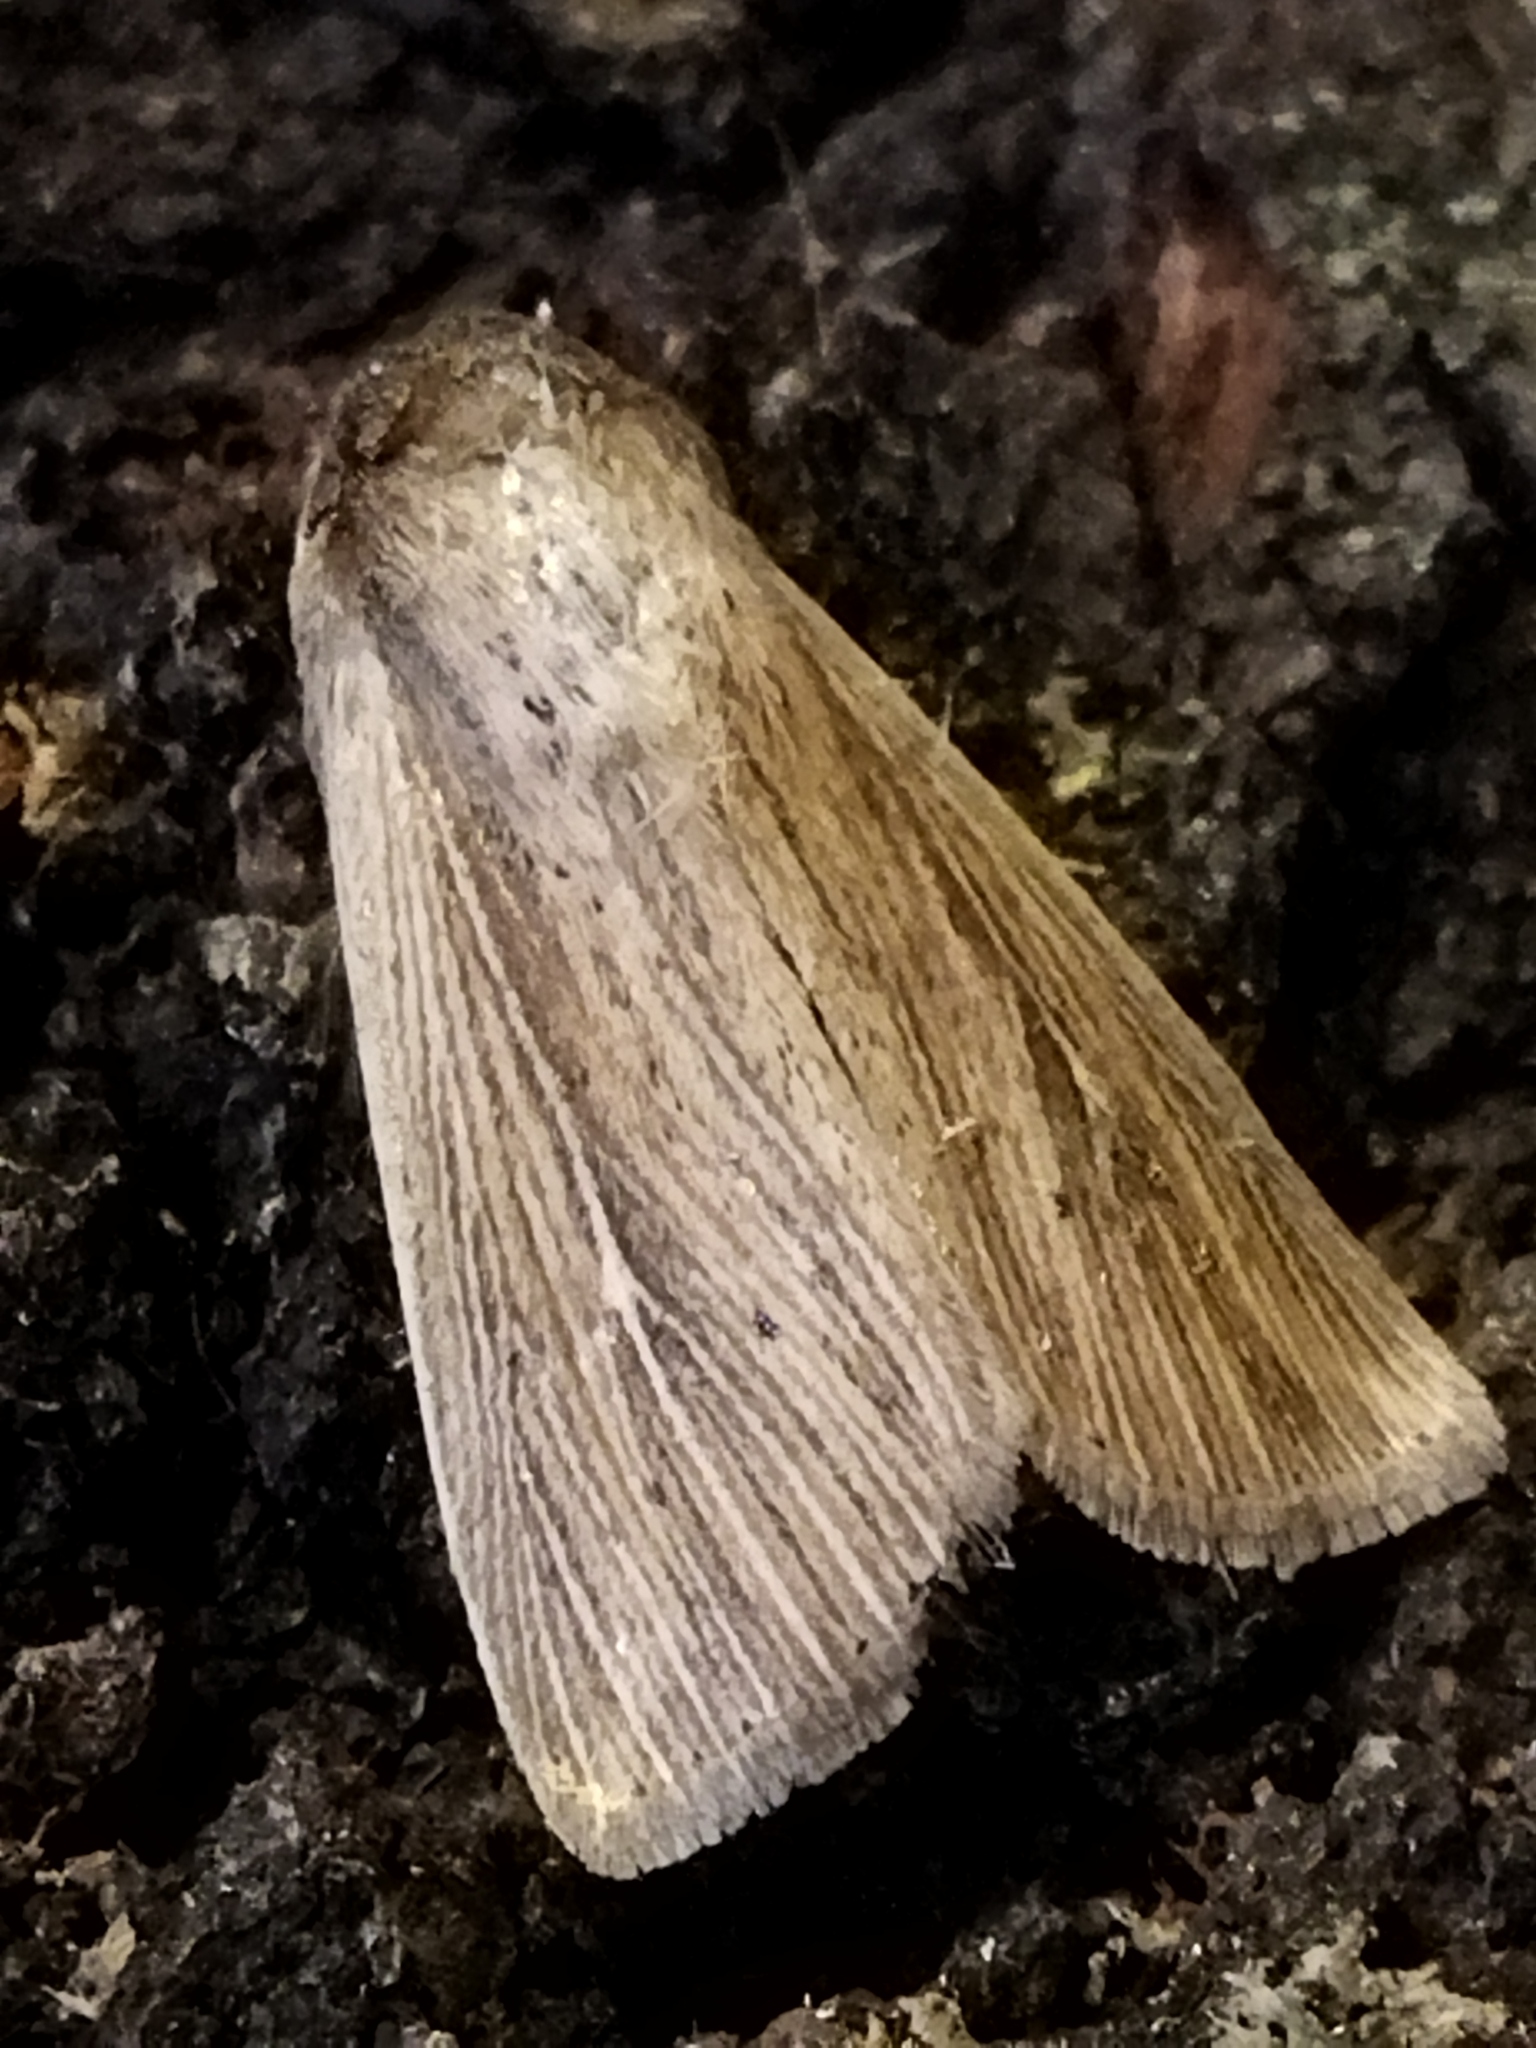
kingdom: Animalia
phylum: Arthropoda
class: Insecta
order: Lepidoptera
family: Noctuidae
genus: Mythimna
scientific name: Mythimna congrua
